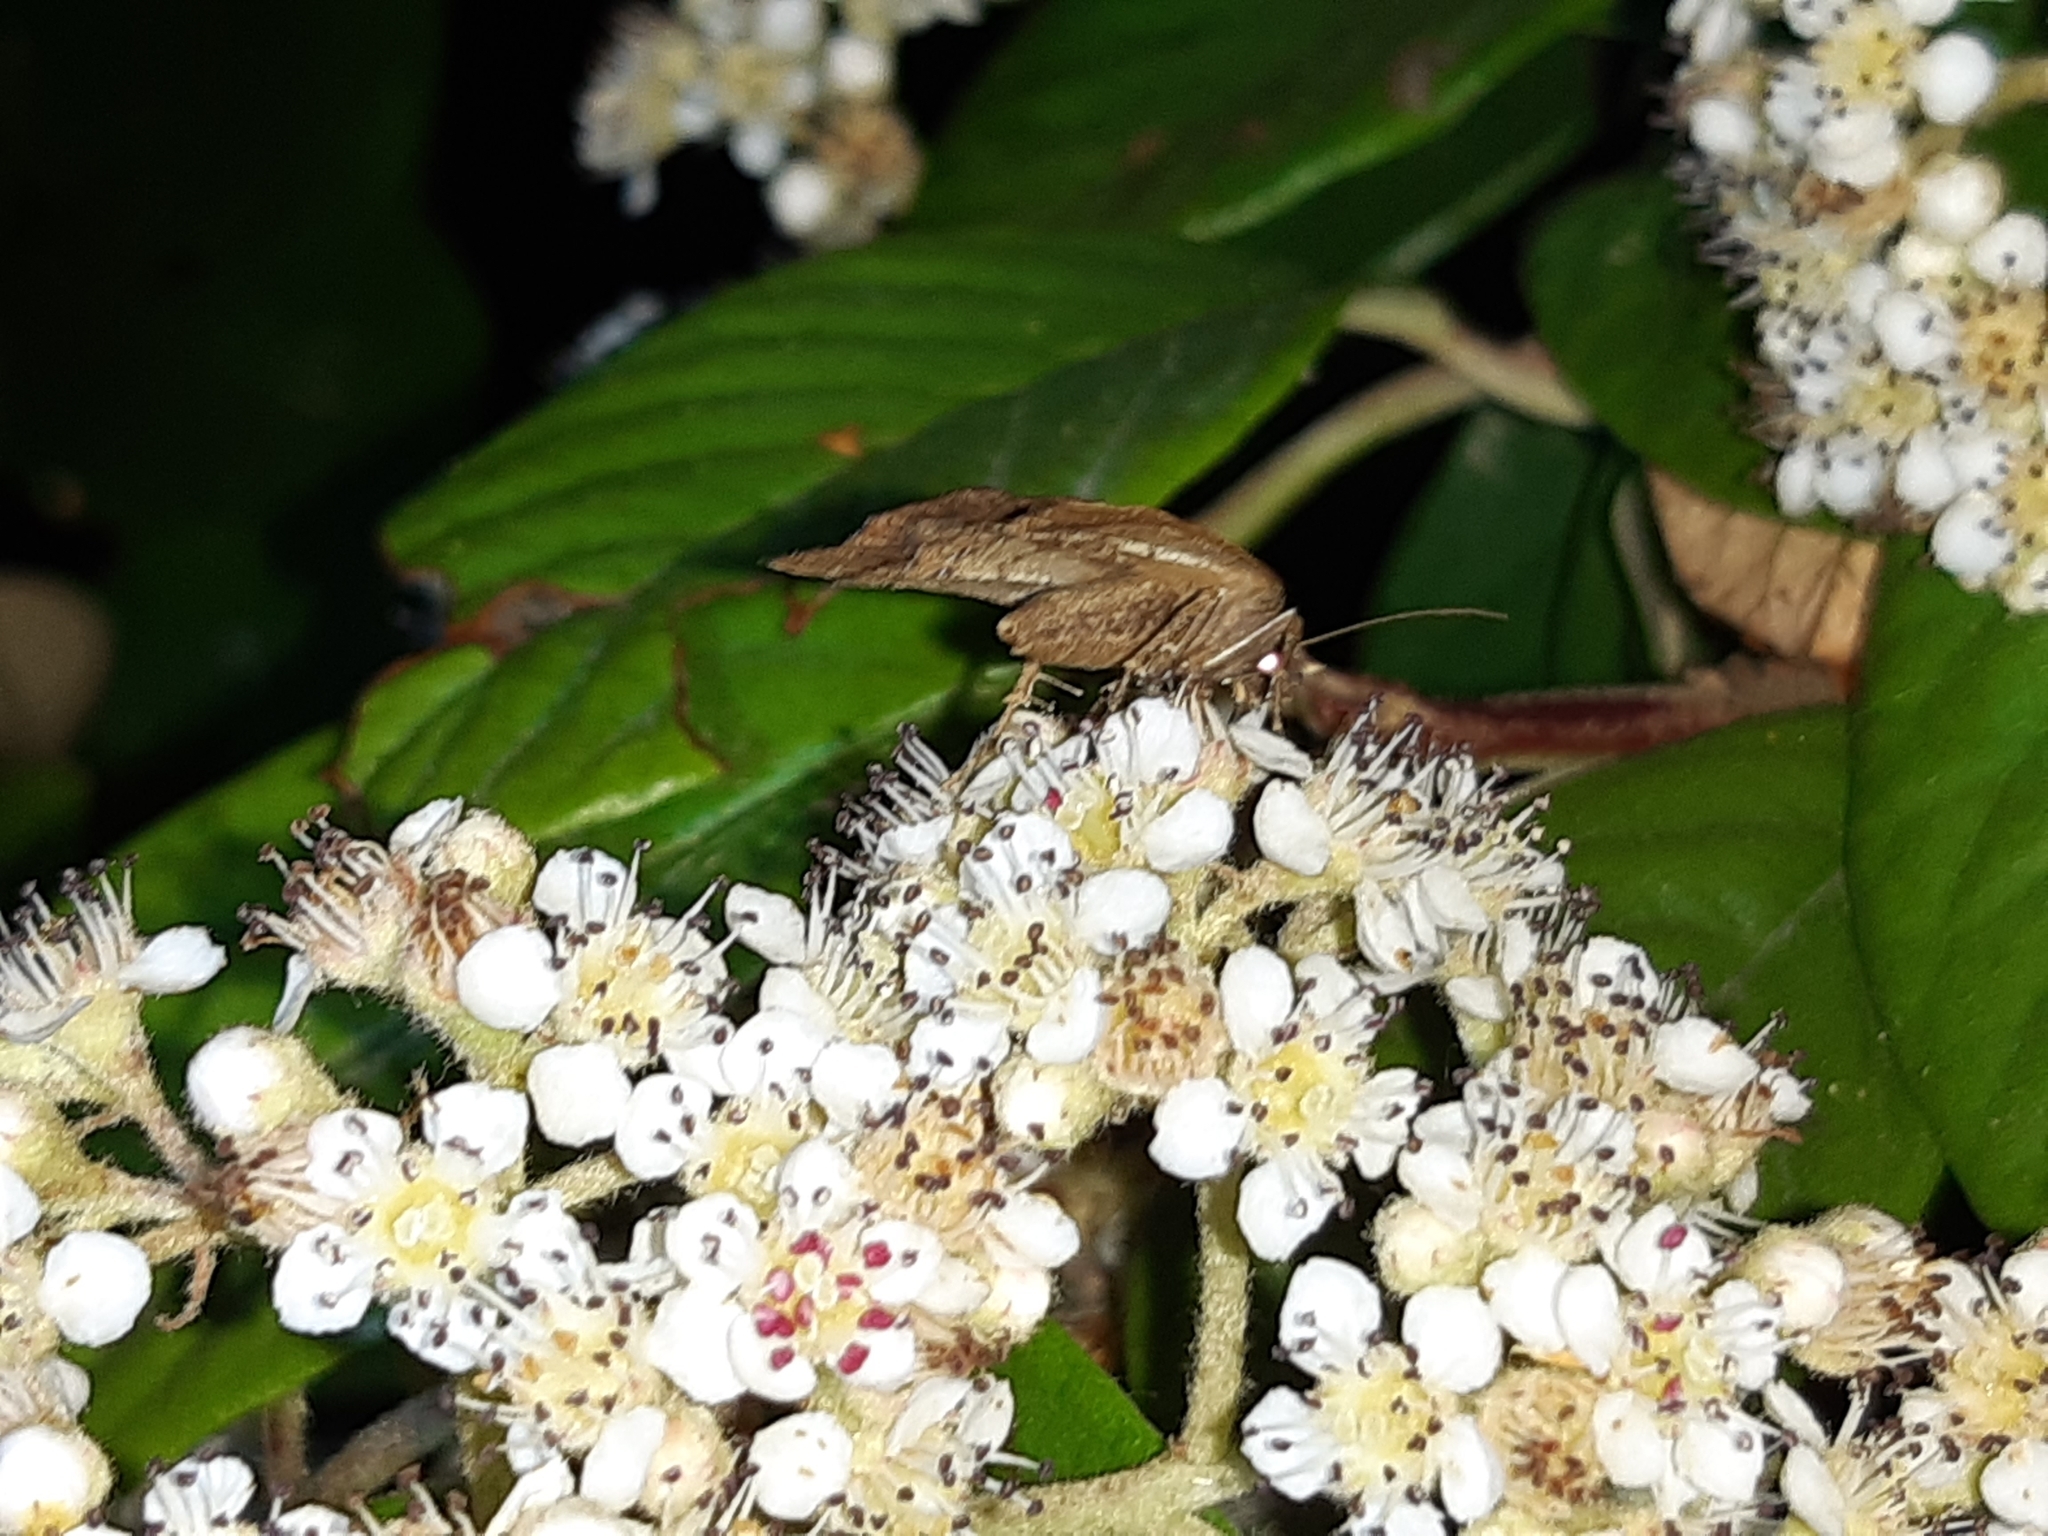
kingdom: Animalia
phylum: Arthropoda
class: Insecta
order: Lepidoptera
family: Erebidae
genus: Rhapsa
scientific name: Rhapsa scotosialis
